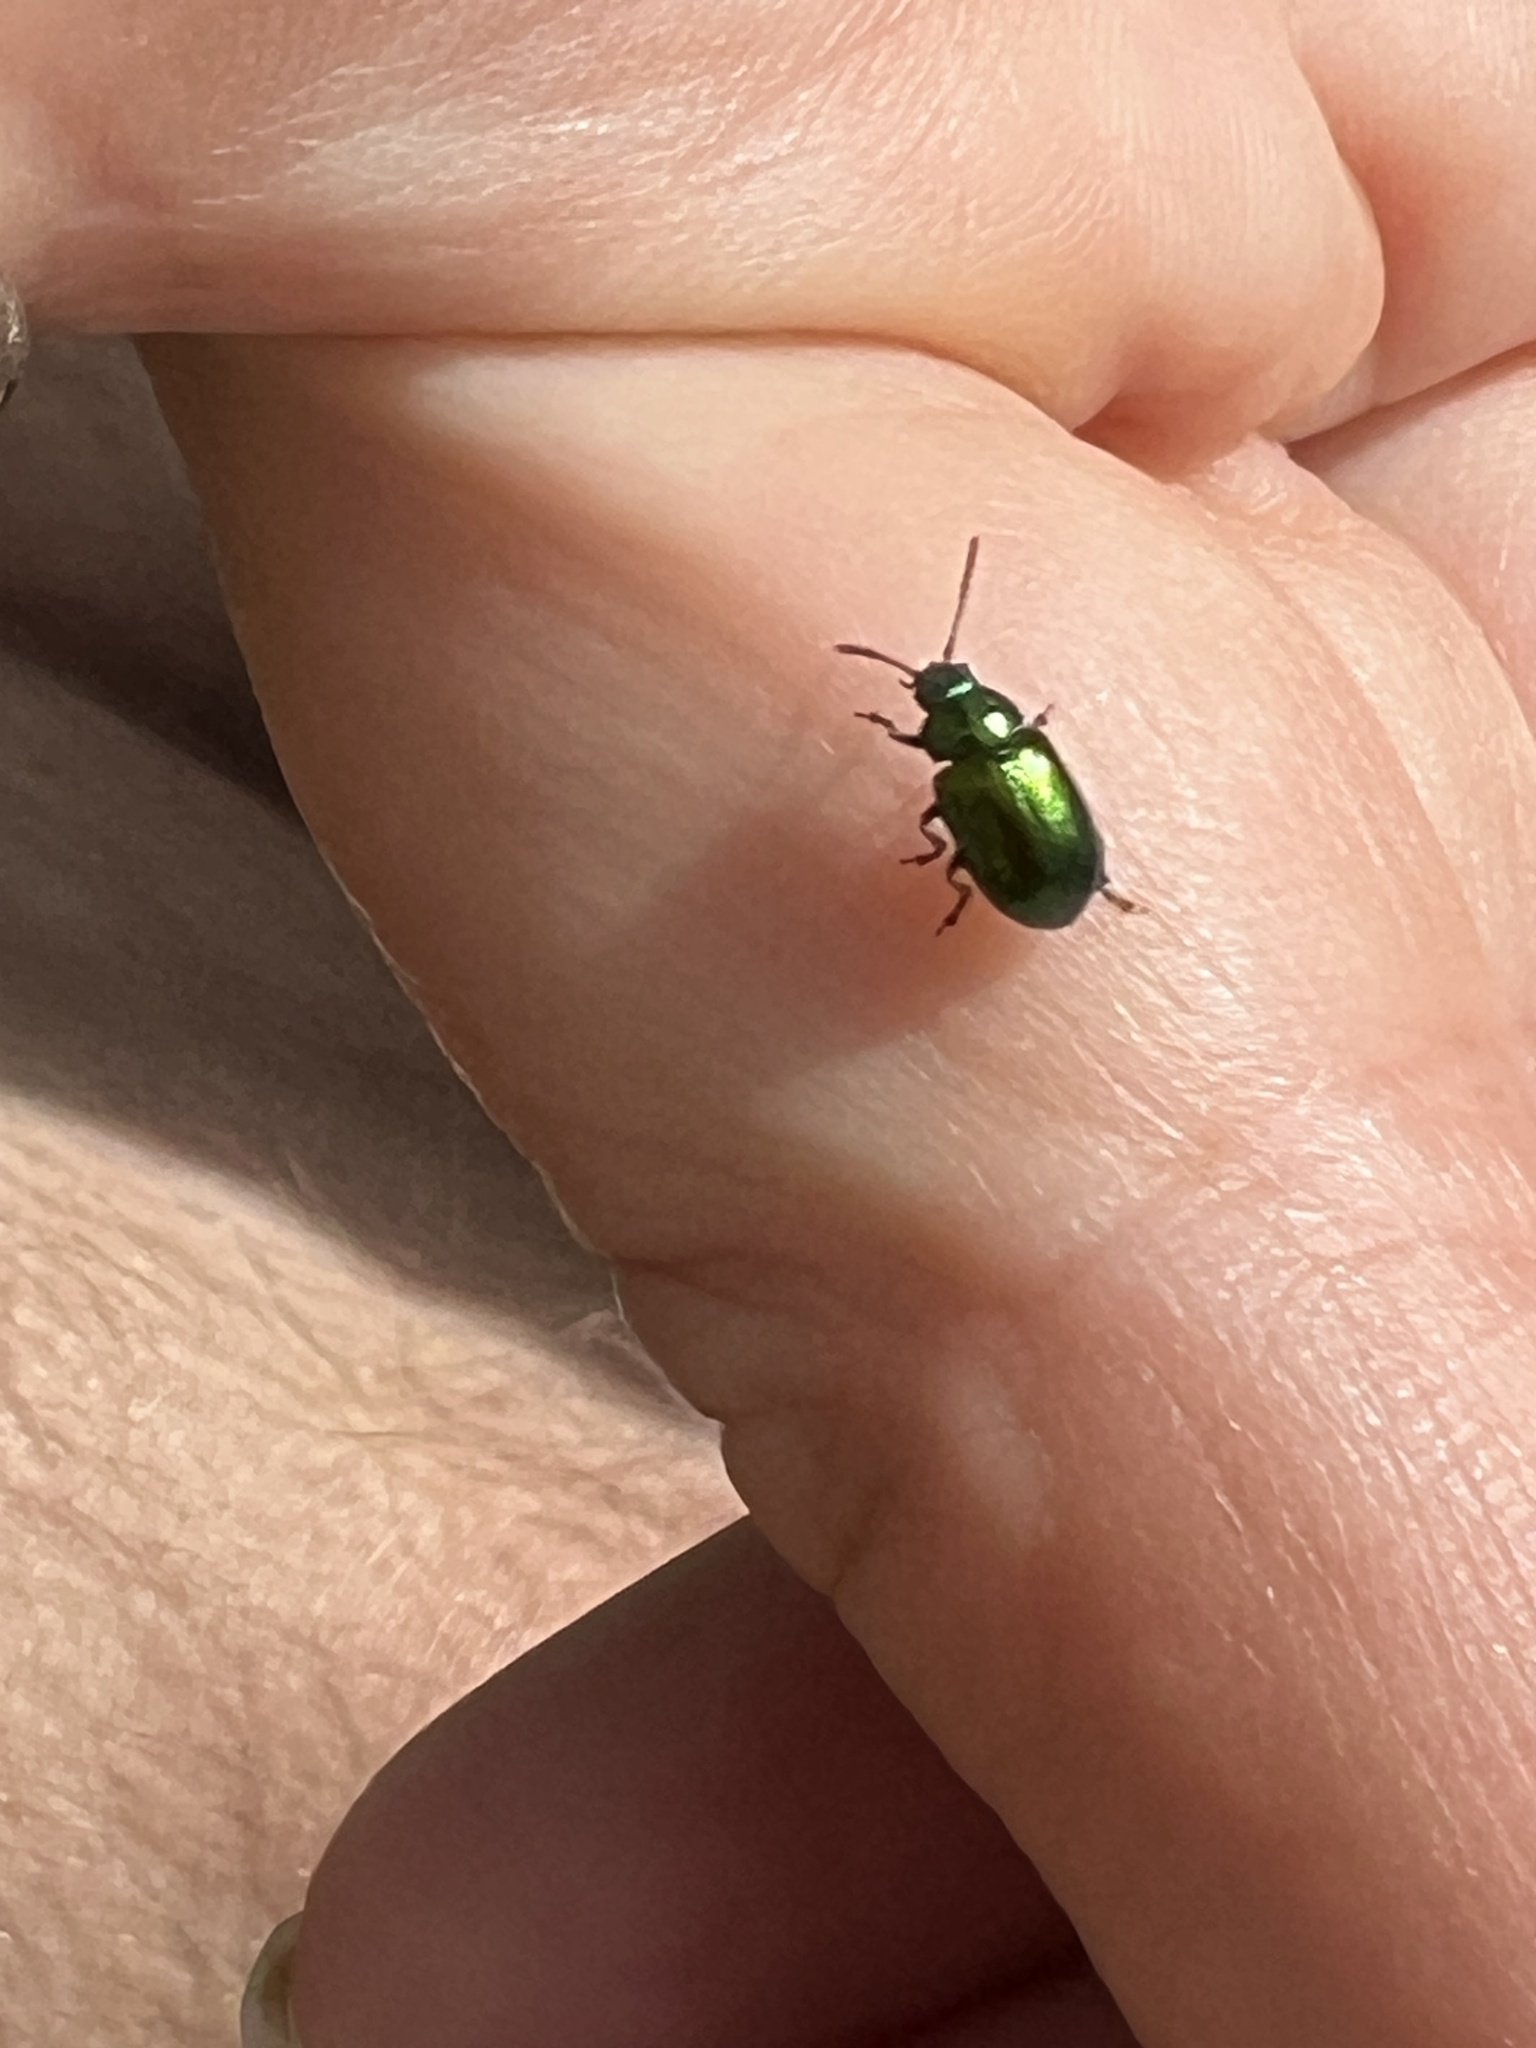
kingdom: Animalia
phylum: Arthropoda
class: Insecta
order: Coleoptera
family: Chrysomelidae
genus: Gastrophysa
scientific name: Gastrophysa viridula
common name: Green dock beetle
